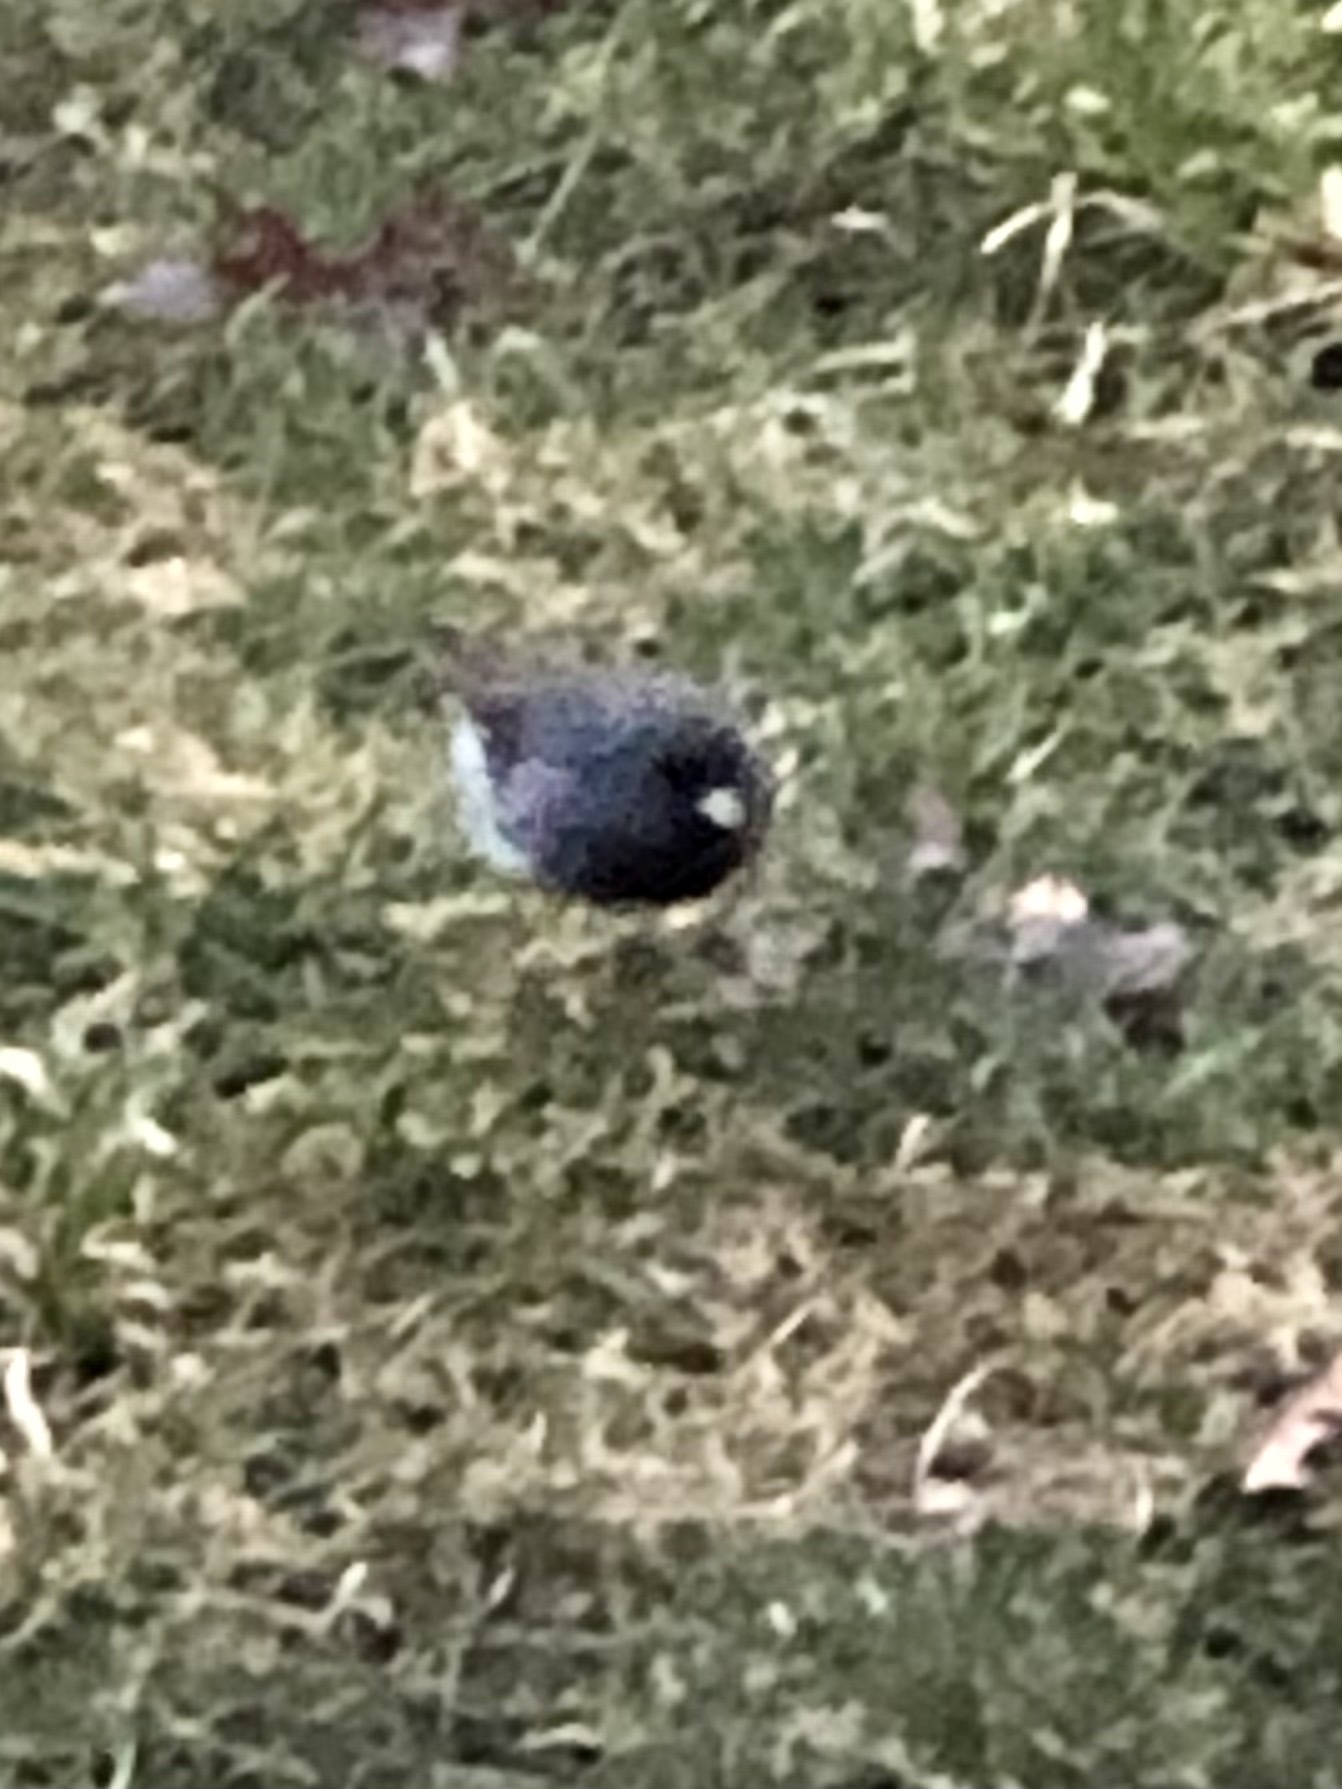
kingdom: Animalia
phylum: Chordata
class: Aves
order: Passeriformes
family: Passerellidae
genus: Junco
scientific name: Junco hyemalis
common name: Dark-eyed junco
